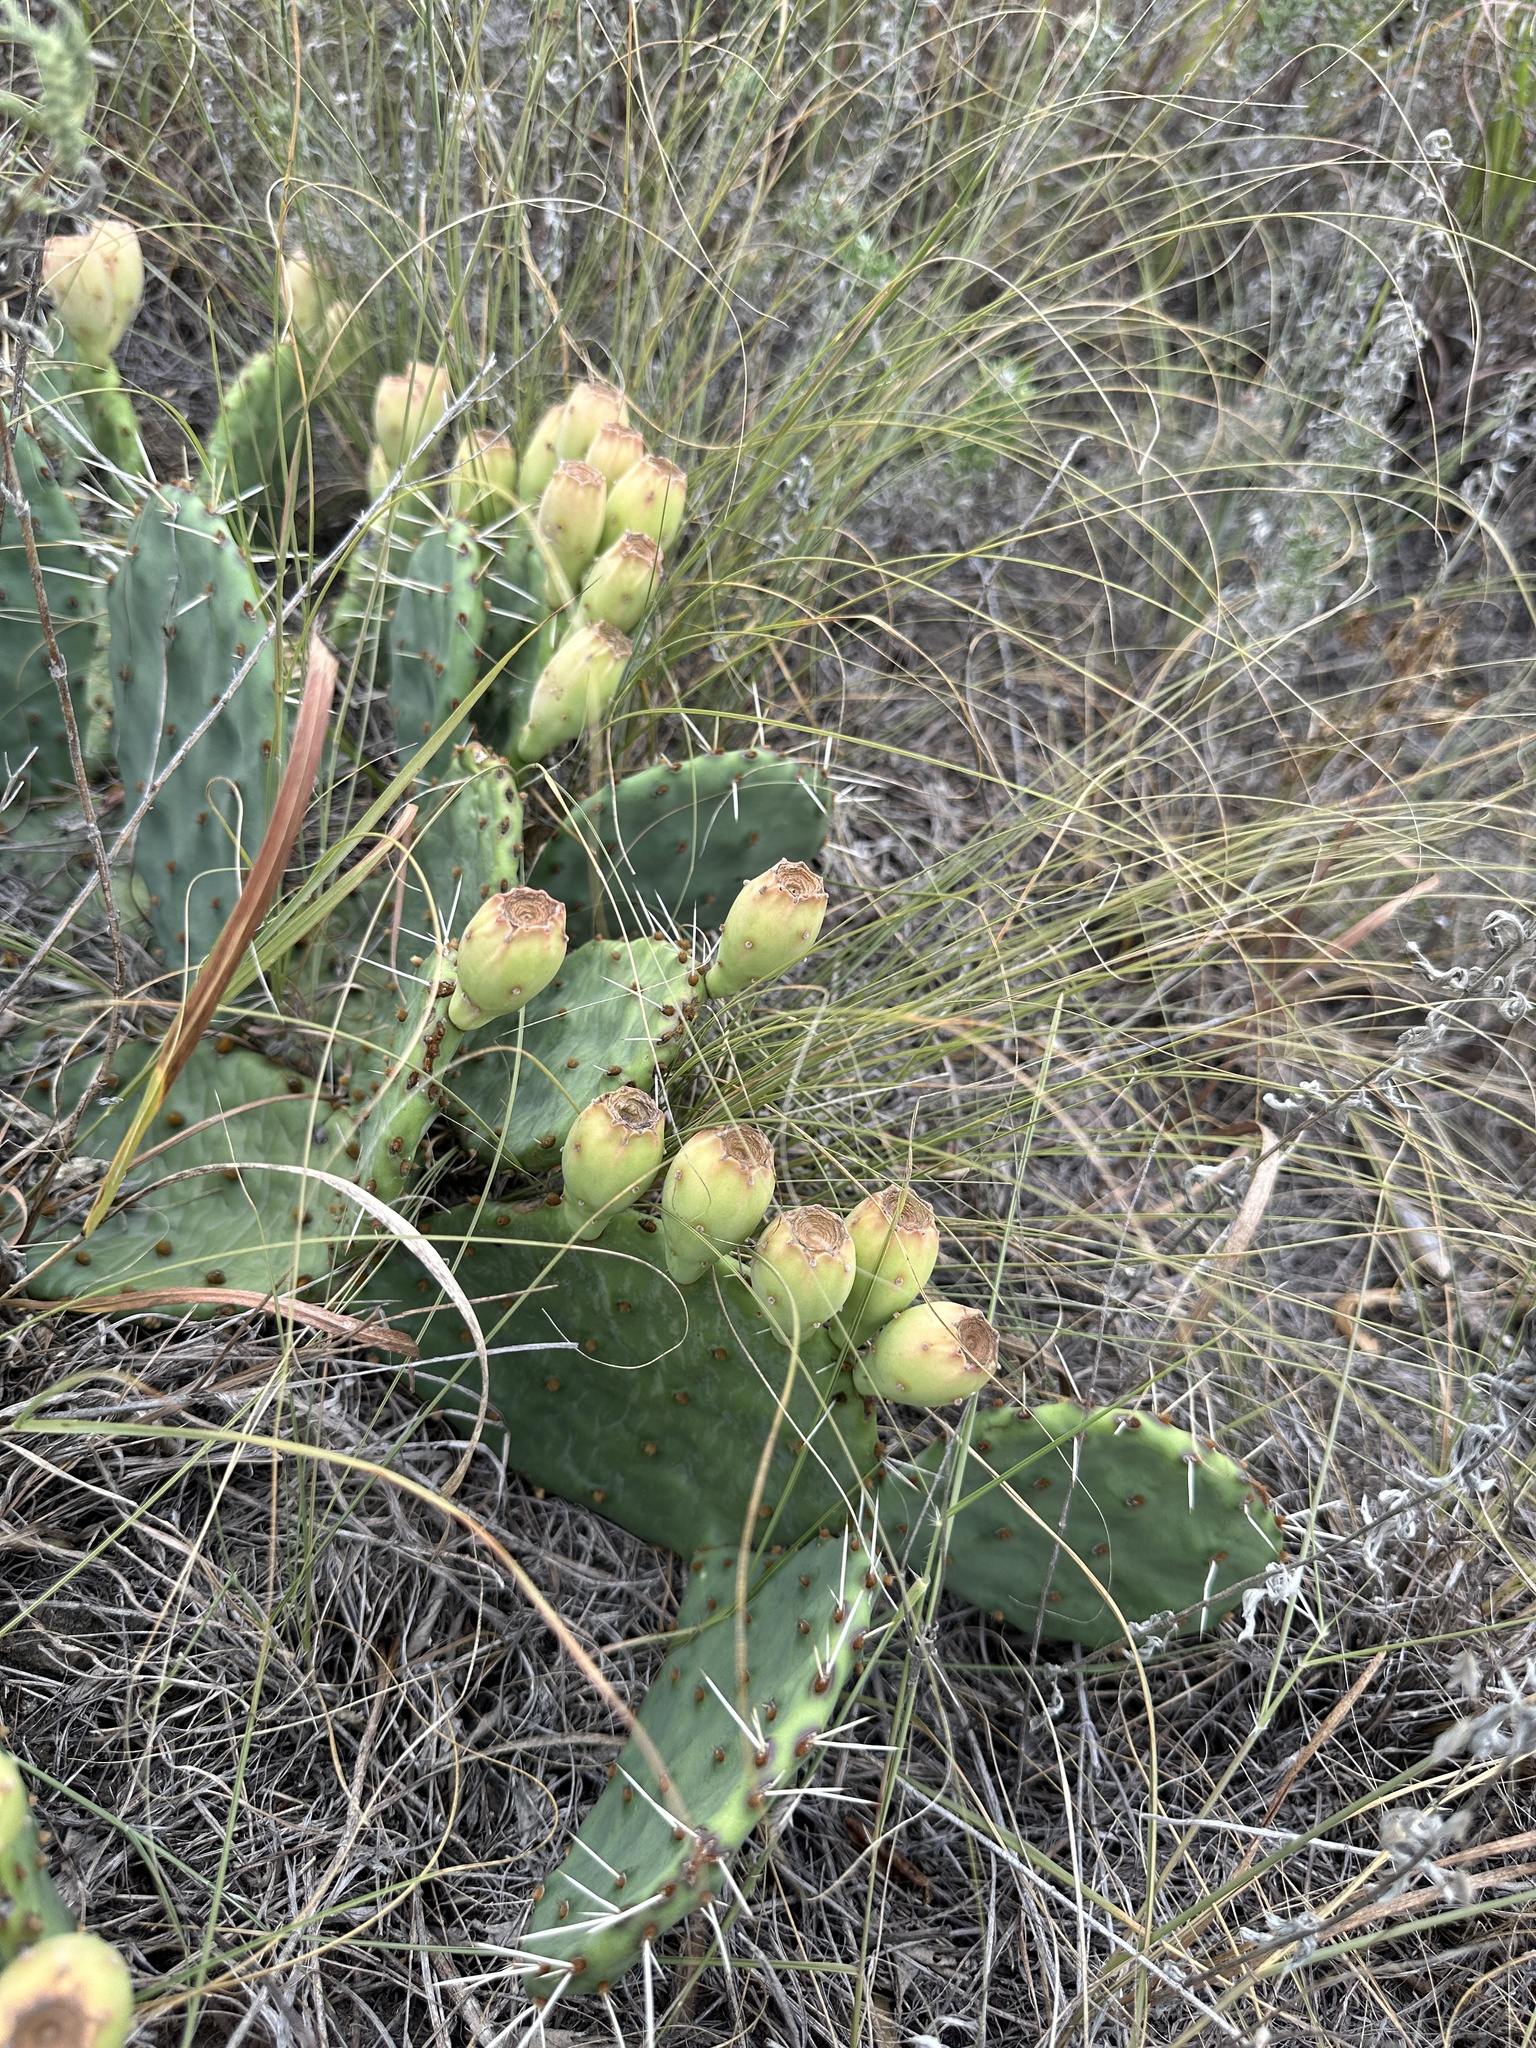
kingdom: Plantae
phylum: Tracheophyta
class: Magnoliopsida
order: Caryophyllales
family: Cactaceae
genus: Opuntia
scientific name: Opuntia macrorhiza
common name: Grassland pricklypear
